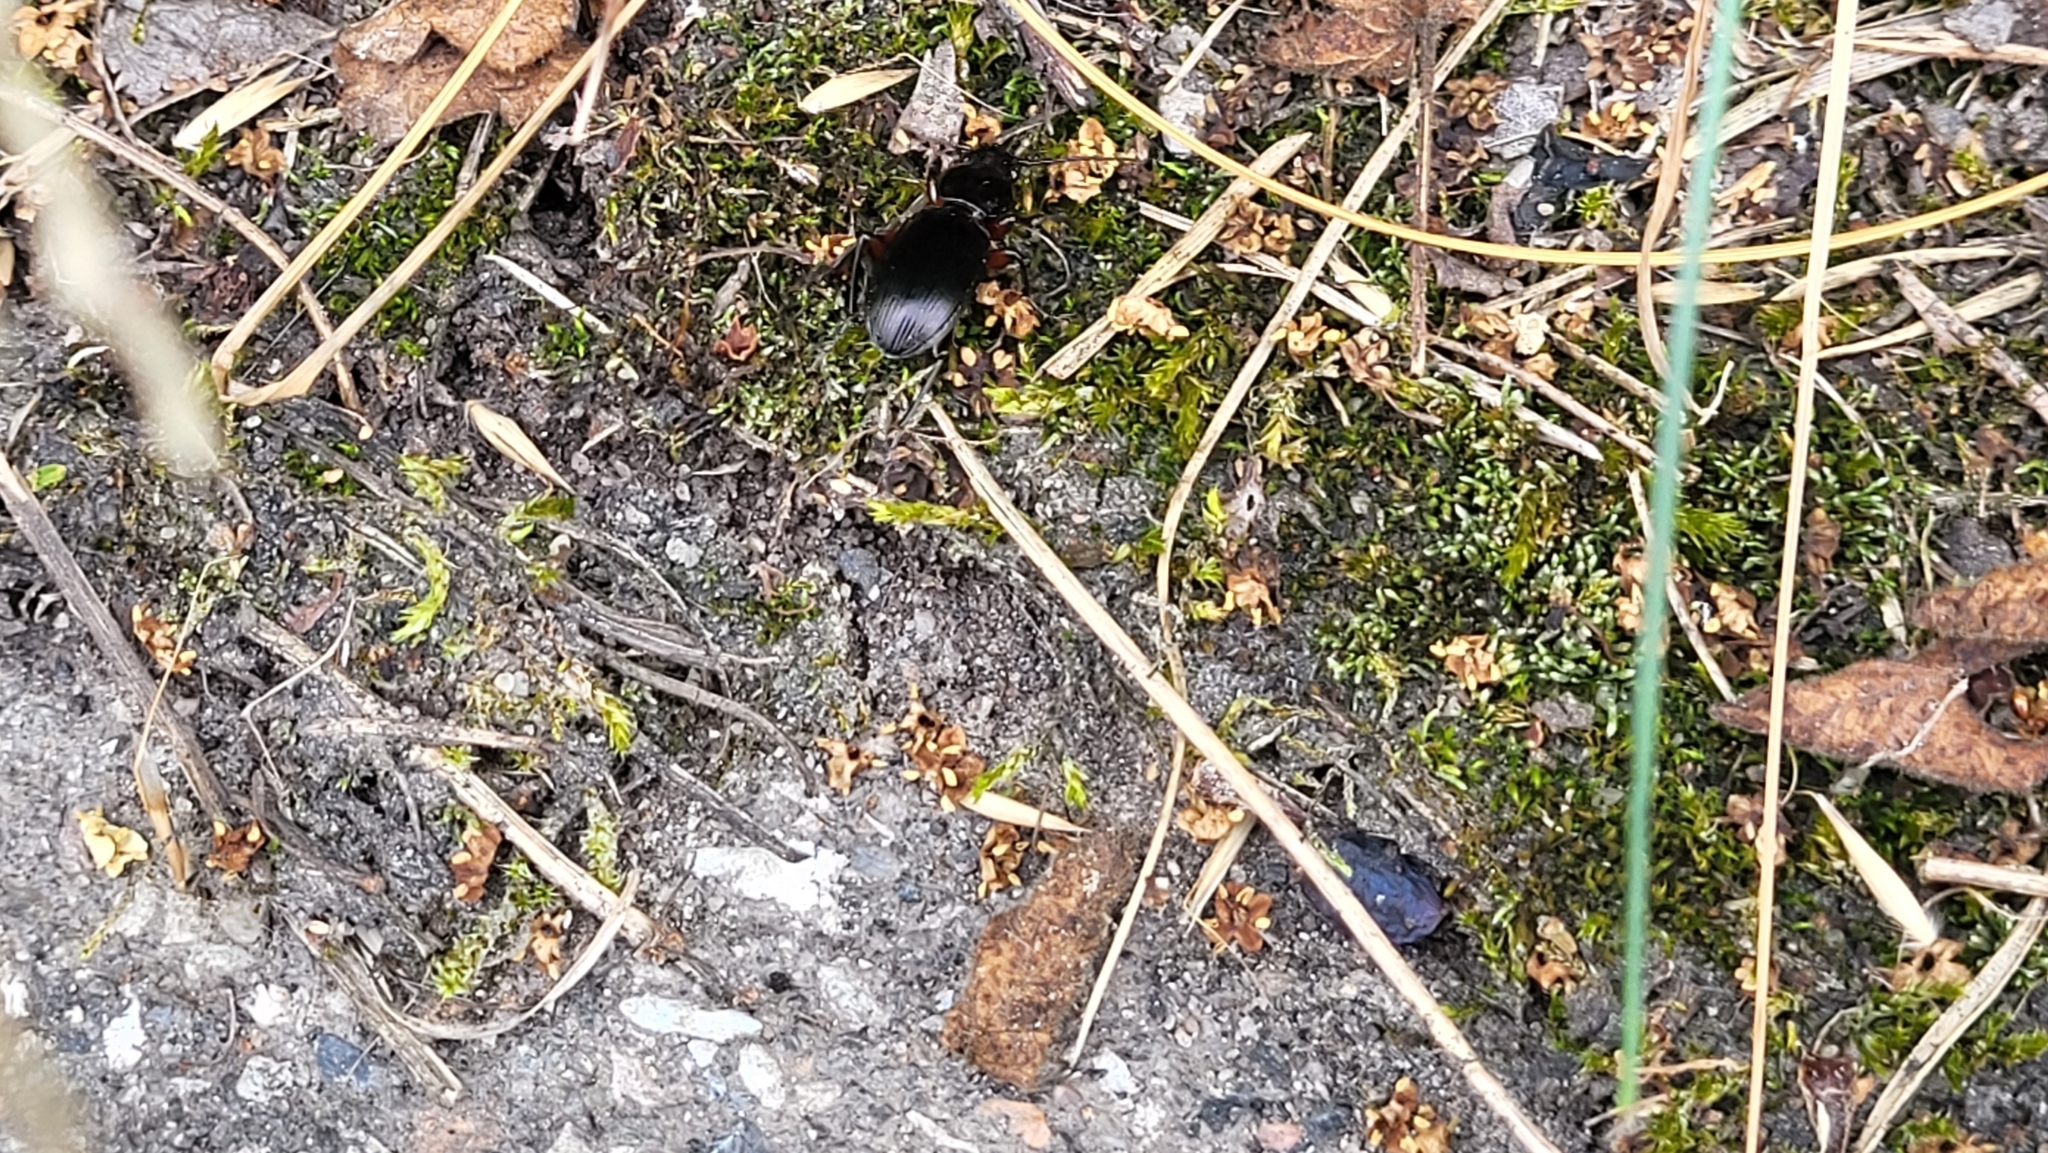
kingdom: Animalia
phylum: Arthropoda
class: Insecta
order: Coleoptera
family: Carabidae
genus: Pterostichus
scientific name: Pterostichus madidus
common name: Black clock
